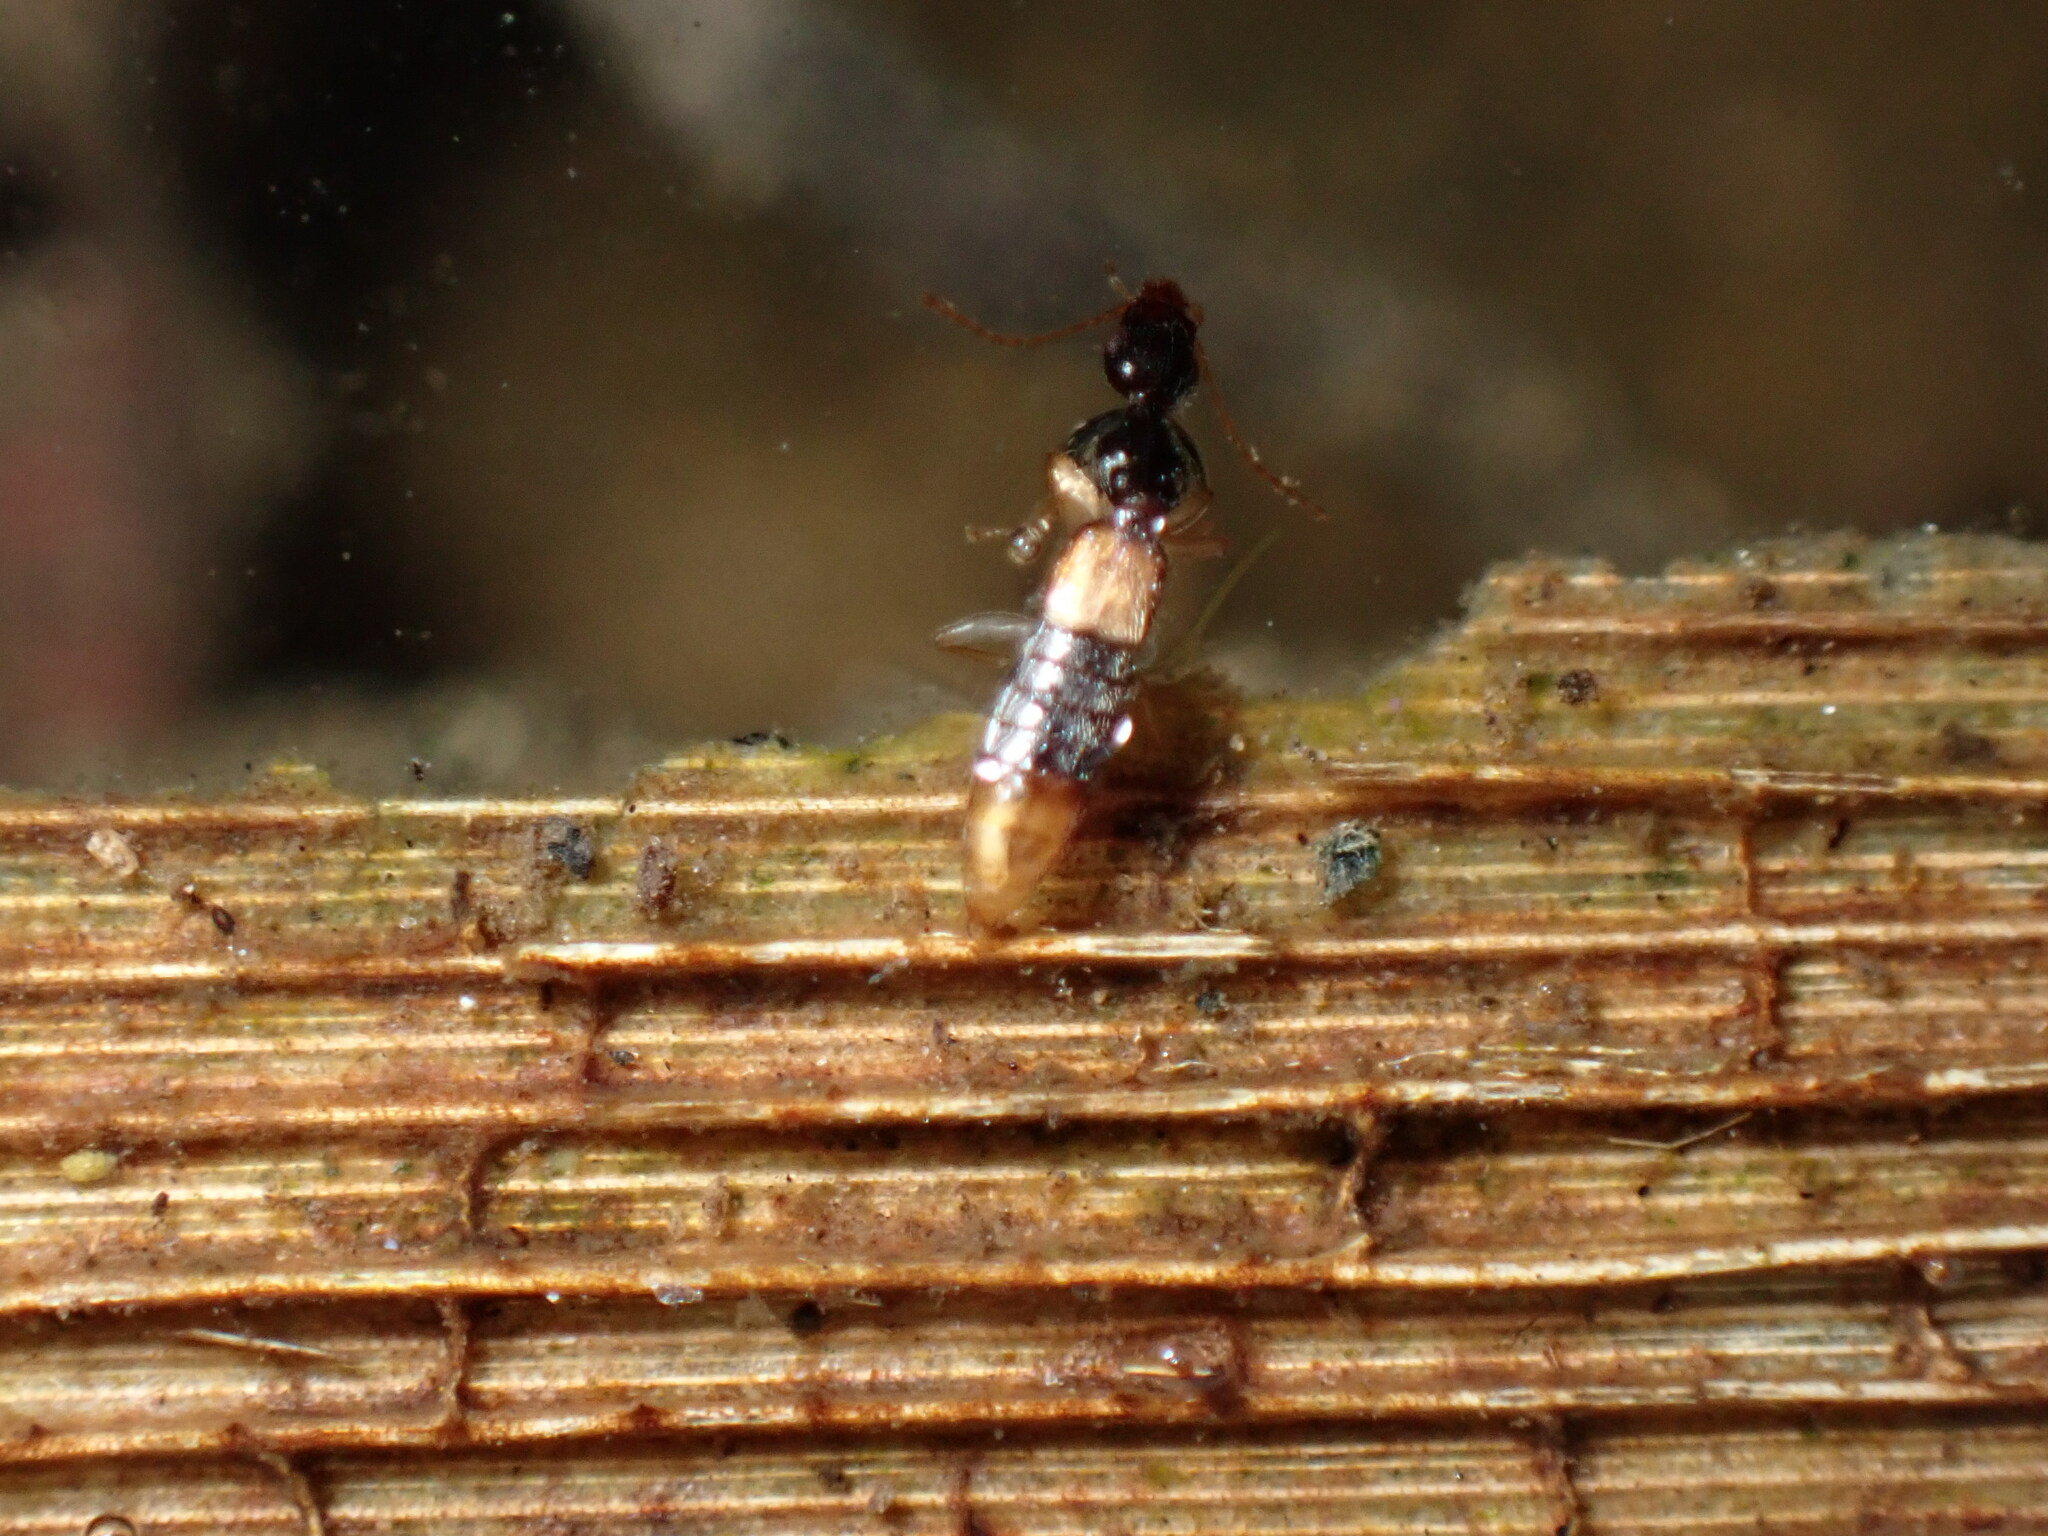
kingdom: Animalia
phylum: Arthropoda
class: Insecta
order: Coleoptera
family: Staphylinidae
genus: Stamnoderus
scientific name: Stamnoderus monstrosus
